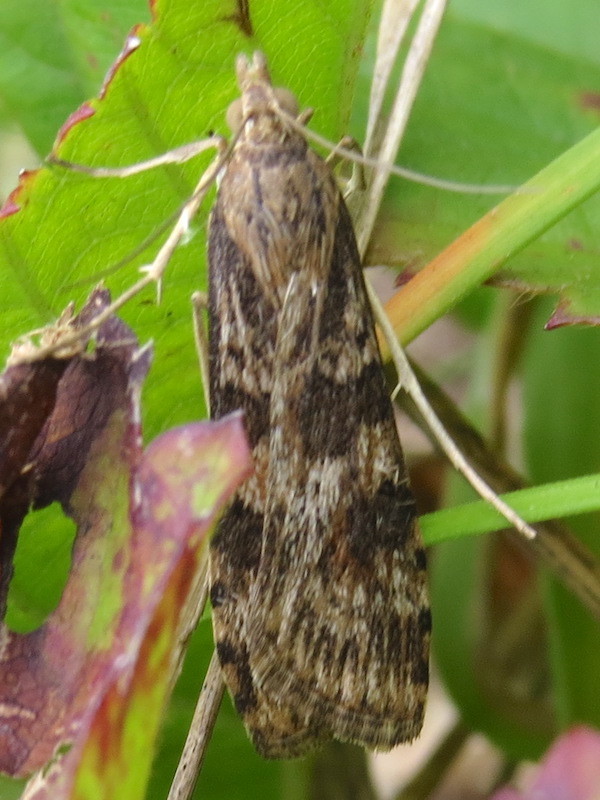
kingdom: Animalia
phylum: Arthropoda
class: Insecta
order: Lepidoptera
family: Crambidae
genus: Nomophila
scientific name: Nomophila nearctica
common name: American rush veneer
